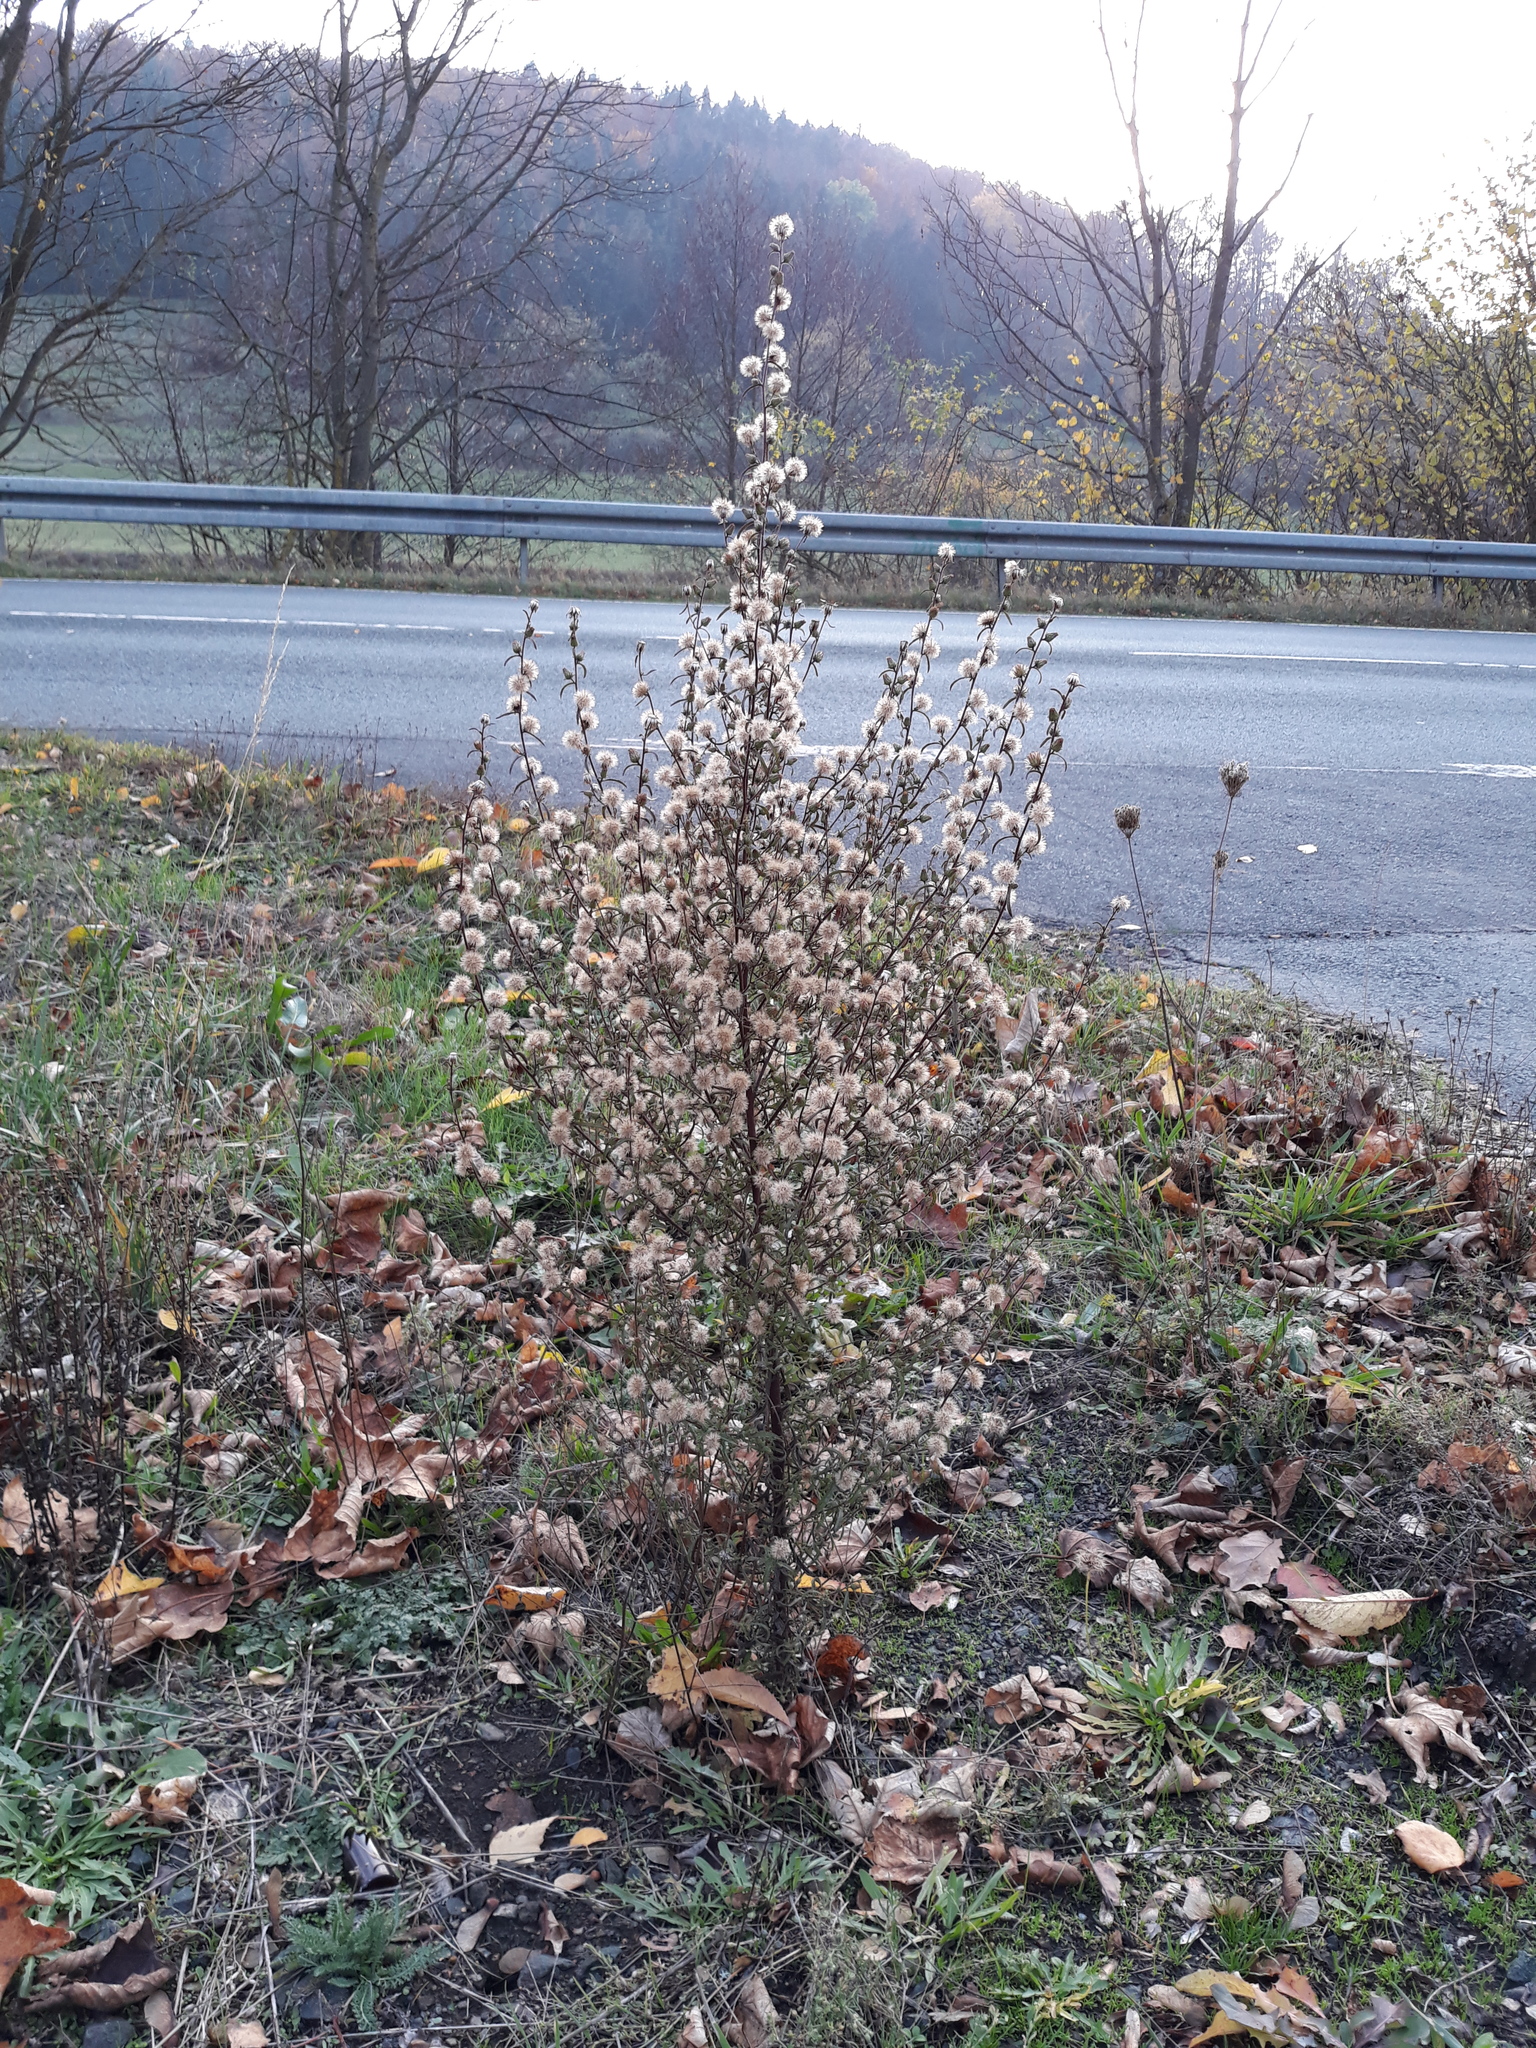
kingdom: Plantae
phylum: Tracheophyta
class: Magnoliopsida
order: Asterales
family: Asteraceae
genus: Dittrichia
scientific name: Dittrichia graveolens
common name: Stinking fleabane
